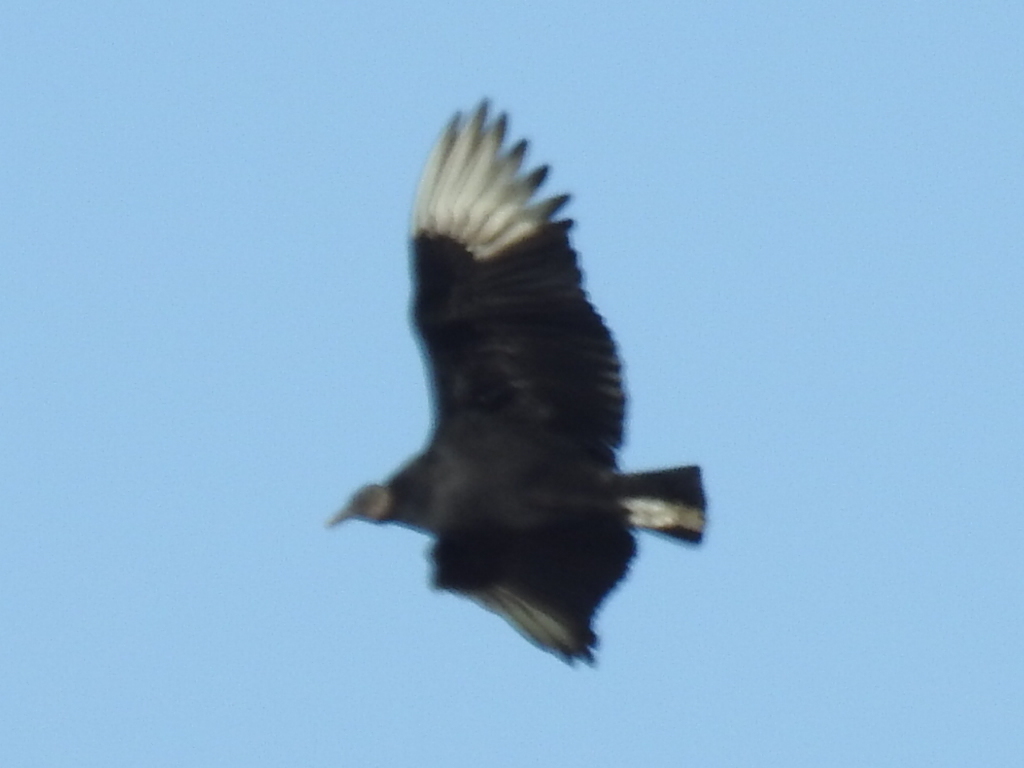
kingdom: Animalia
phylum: Chordata
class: Aves
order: Accipitriformes
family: Cathartidae
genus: Coragyps
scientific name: Coragyps atratus
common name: Black vulture
